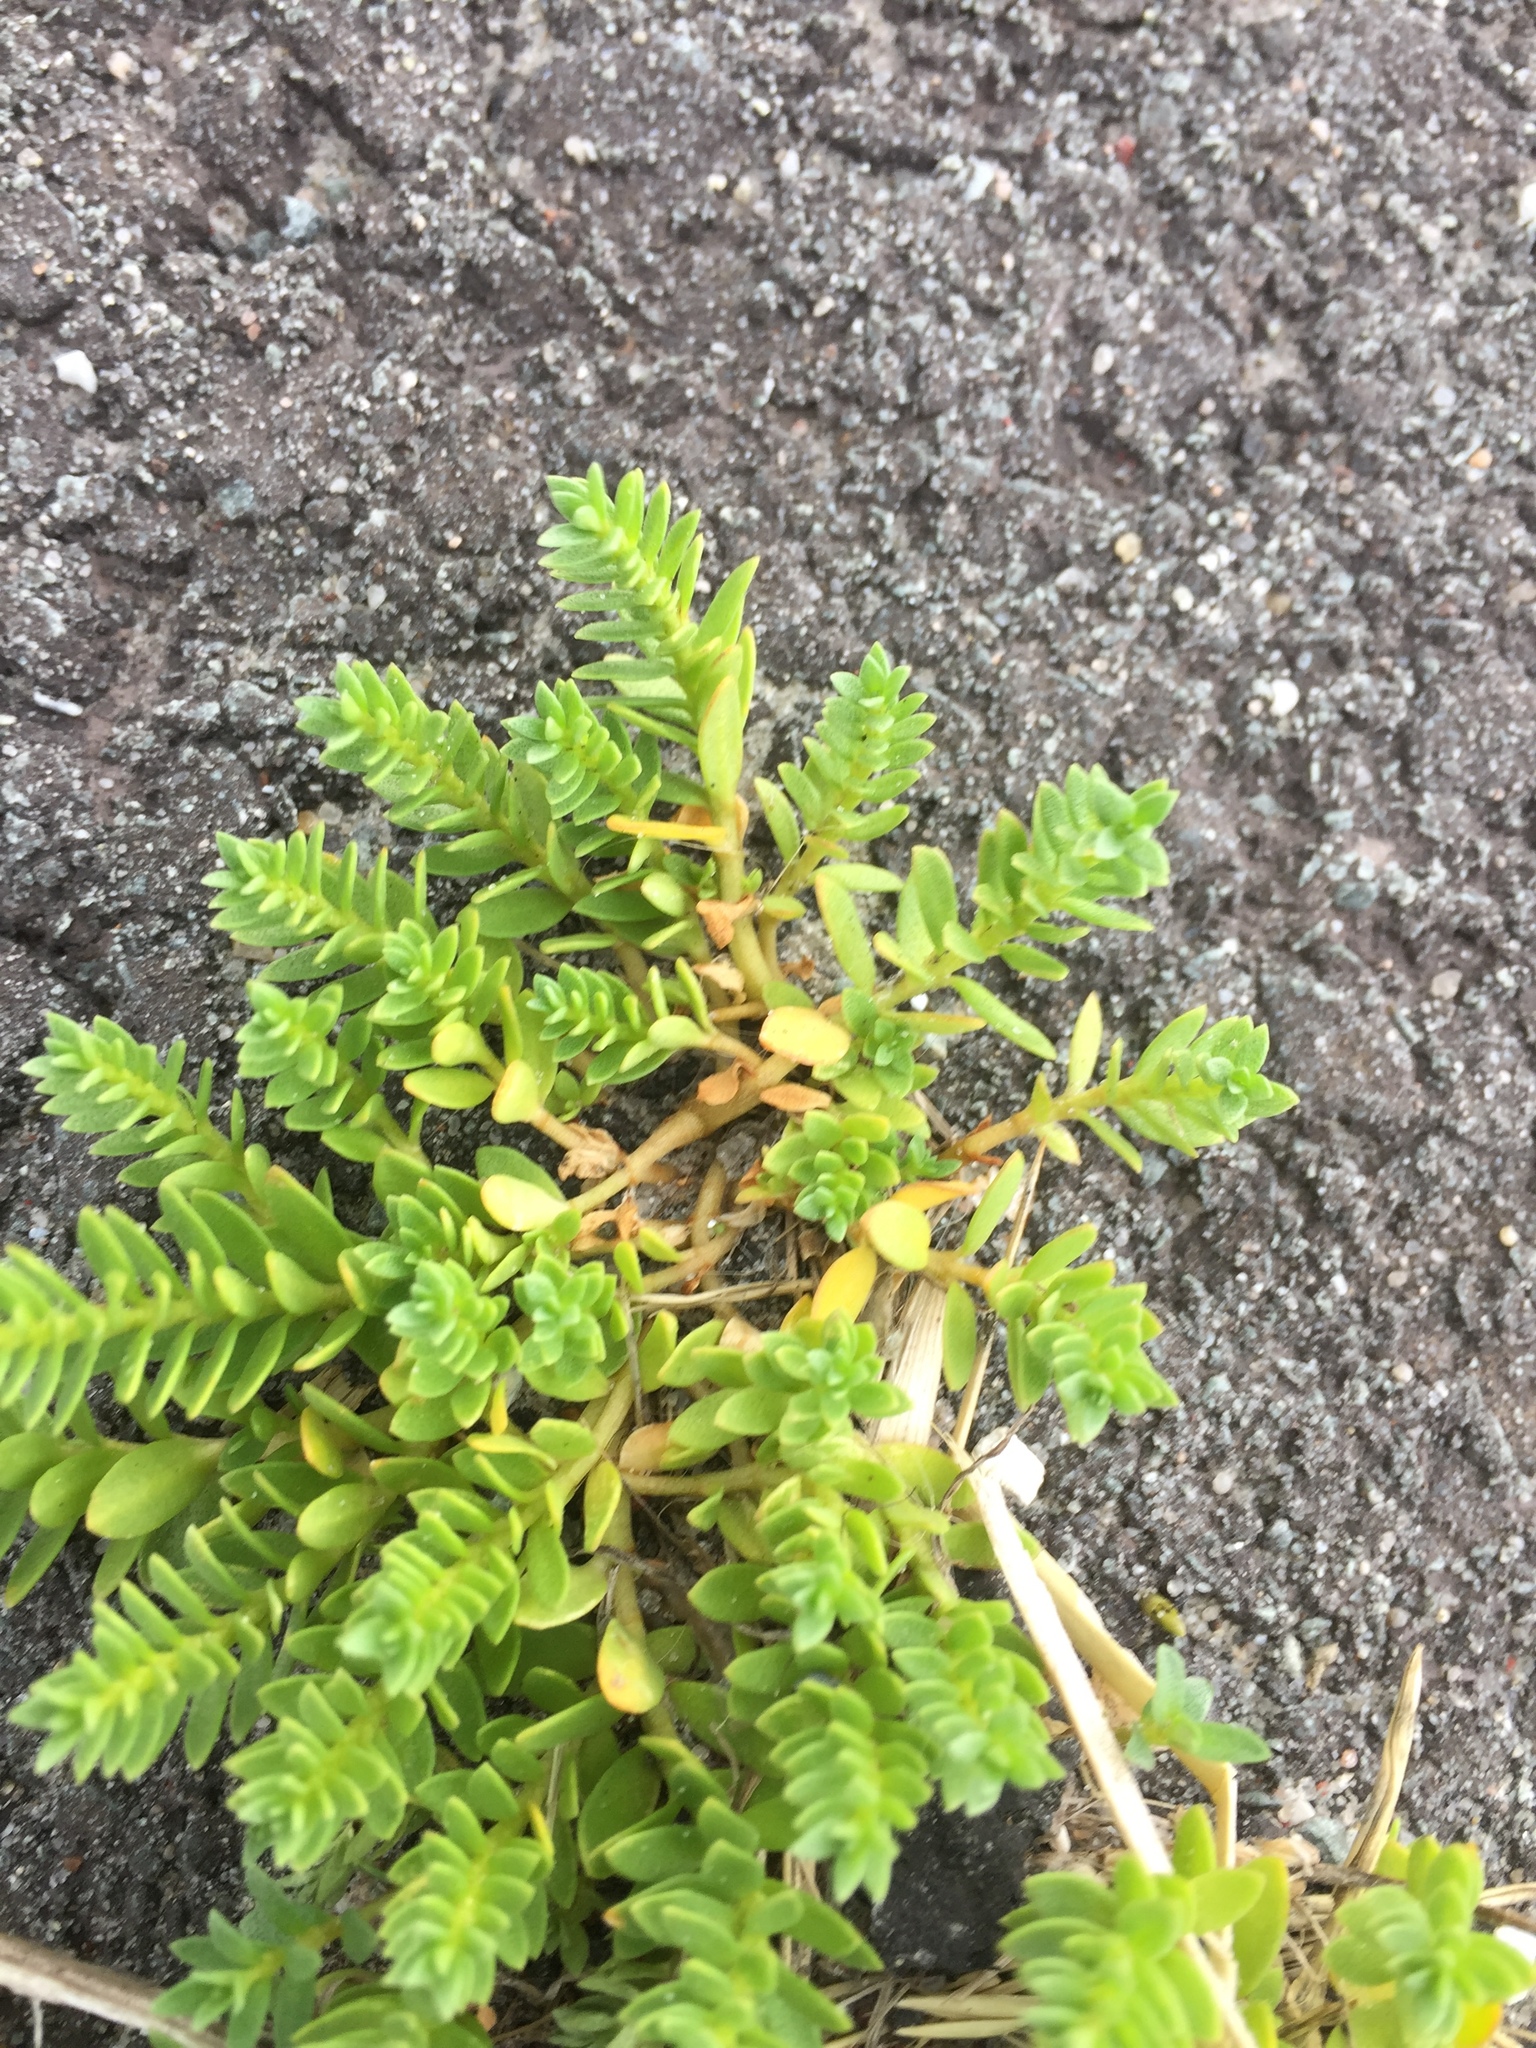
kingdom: Plantae
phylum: Tracheophyta
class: Magnoliopsida
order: Caryophyllales
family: Caryophyllaceae
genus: Honckenya
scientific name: Honckenya peploides
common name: Sea sandwort
